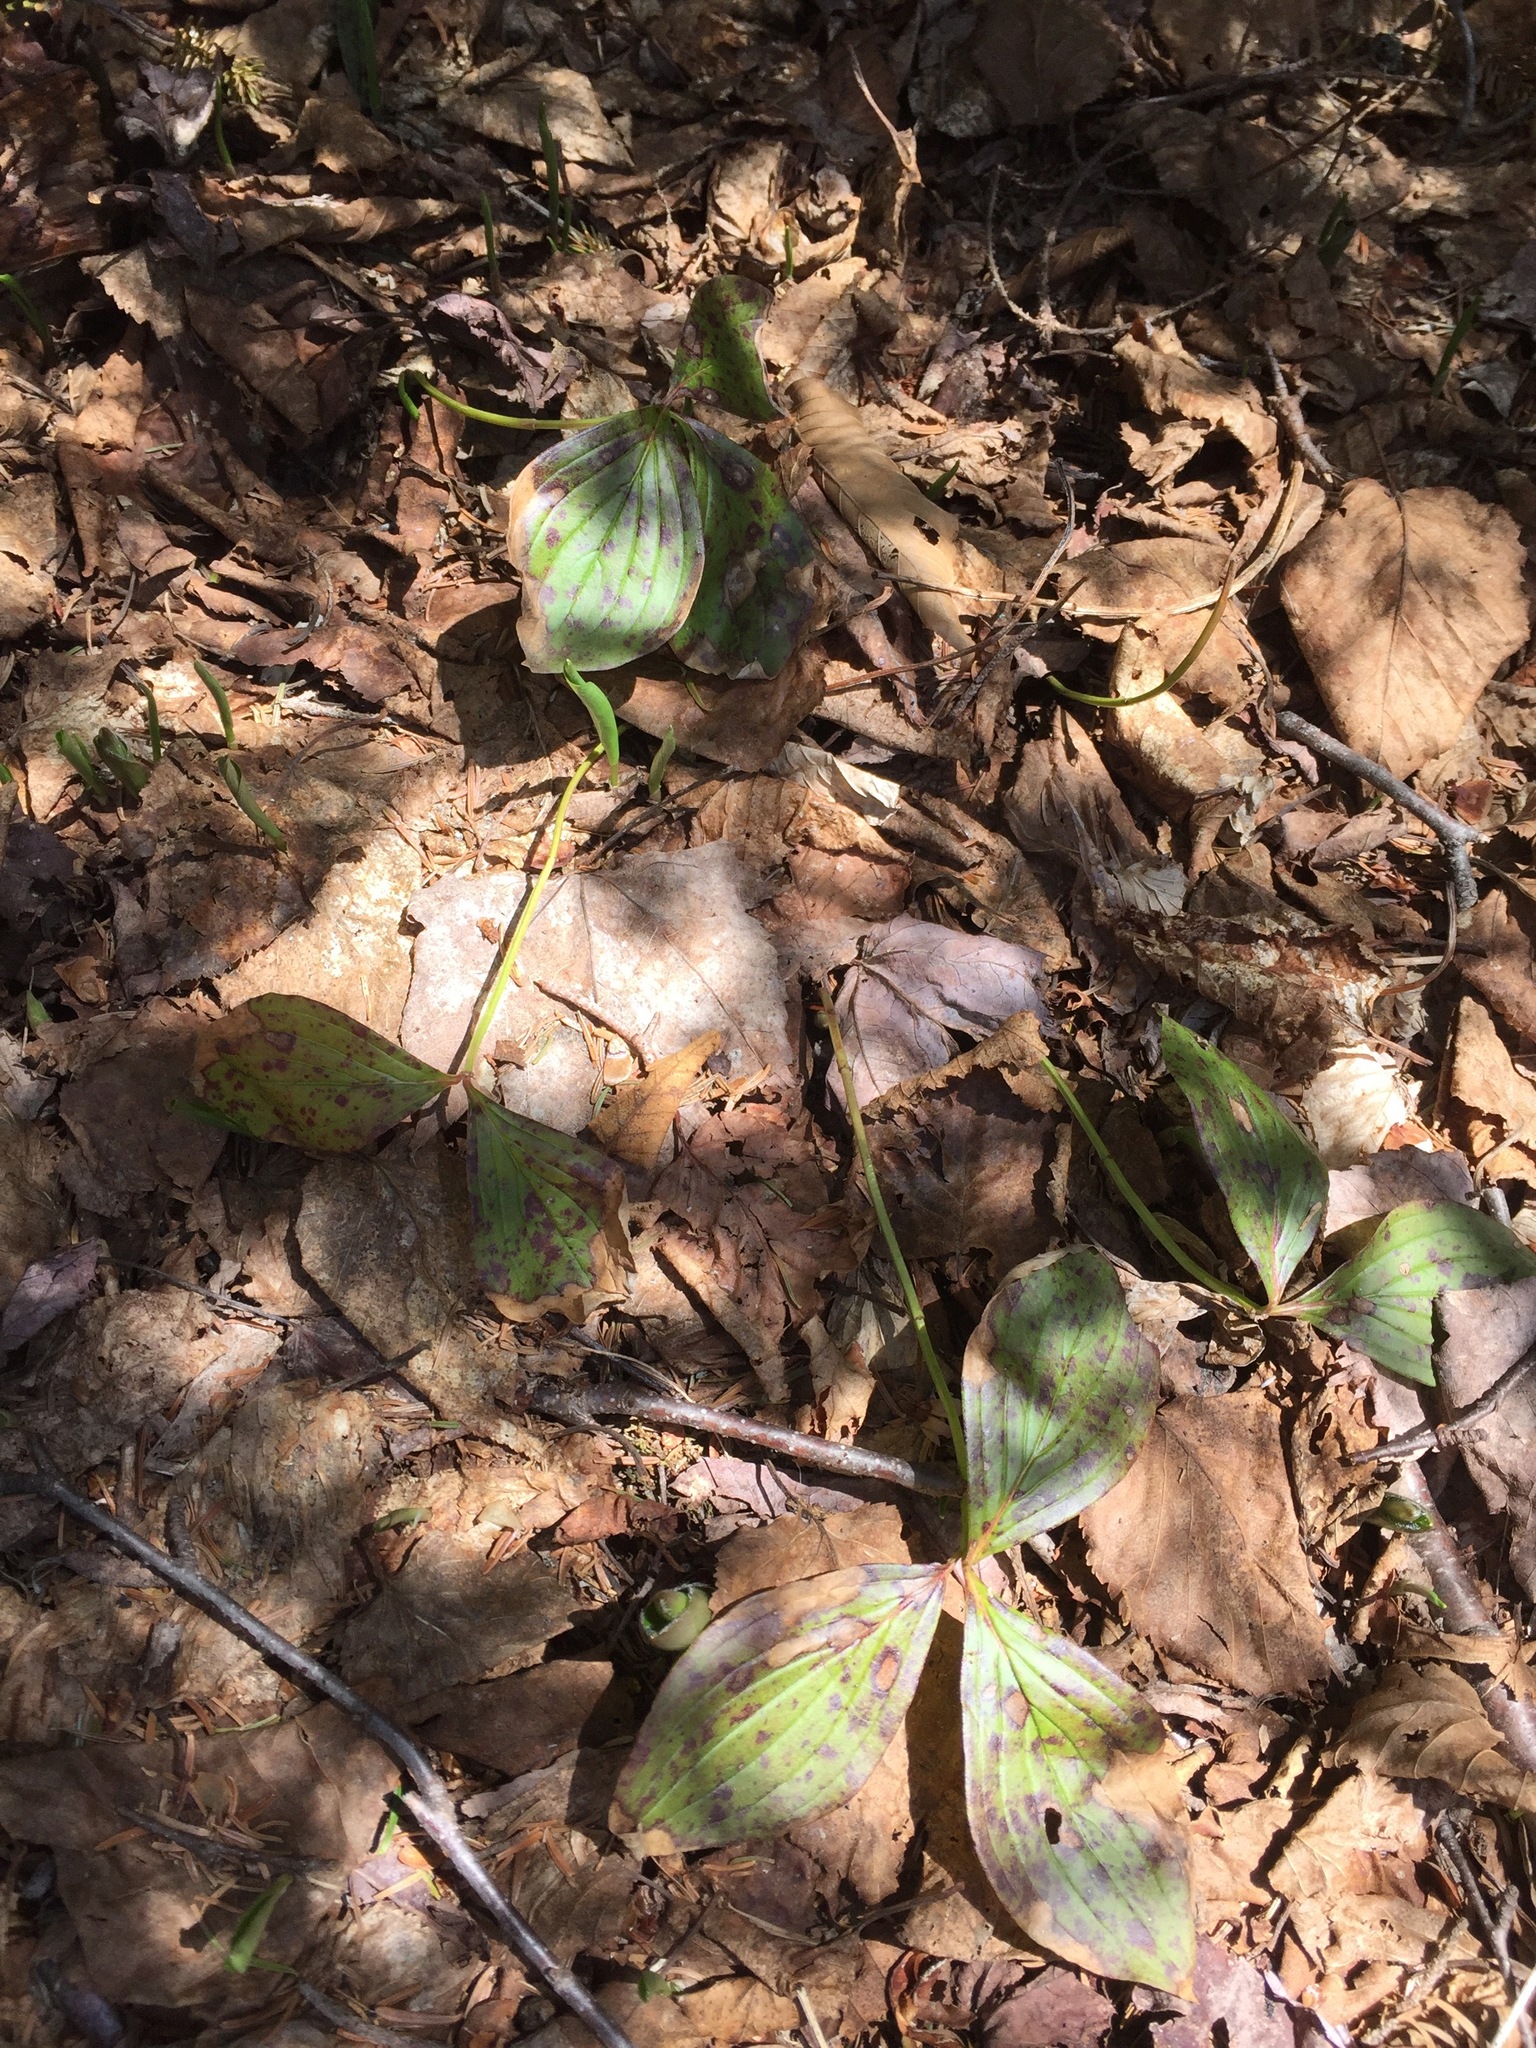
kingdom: Plantae
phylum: Tracheophyta
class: Magnoliopsida
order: Cornales
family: Cornaceae
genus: Cornus
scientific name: Cornus canadensis
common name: Creeping dogwood
